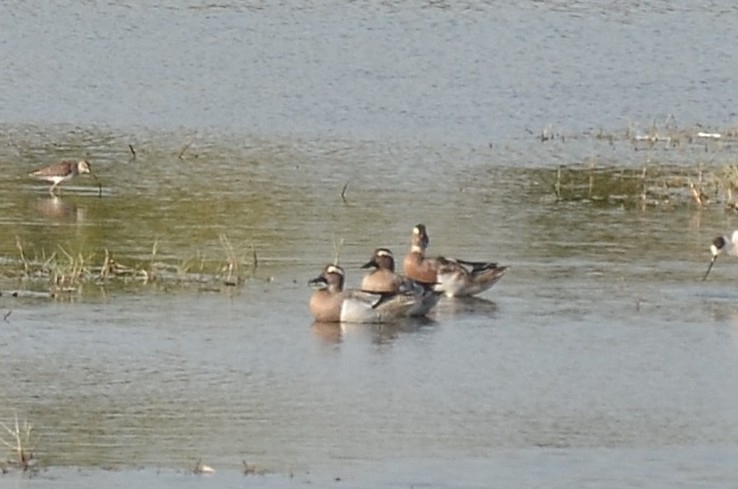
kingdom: Animalia
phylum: Chordata
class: Aves
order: Anseriformes
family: Anatidae
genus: Spatula
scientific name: Spatula querquedula
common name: Garganey
